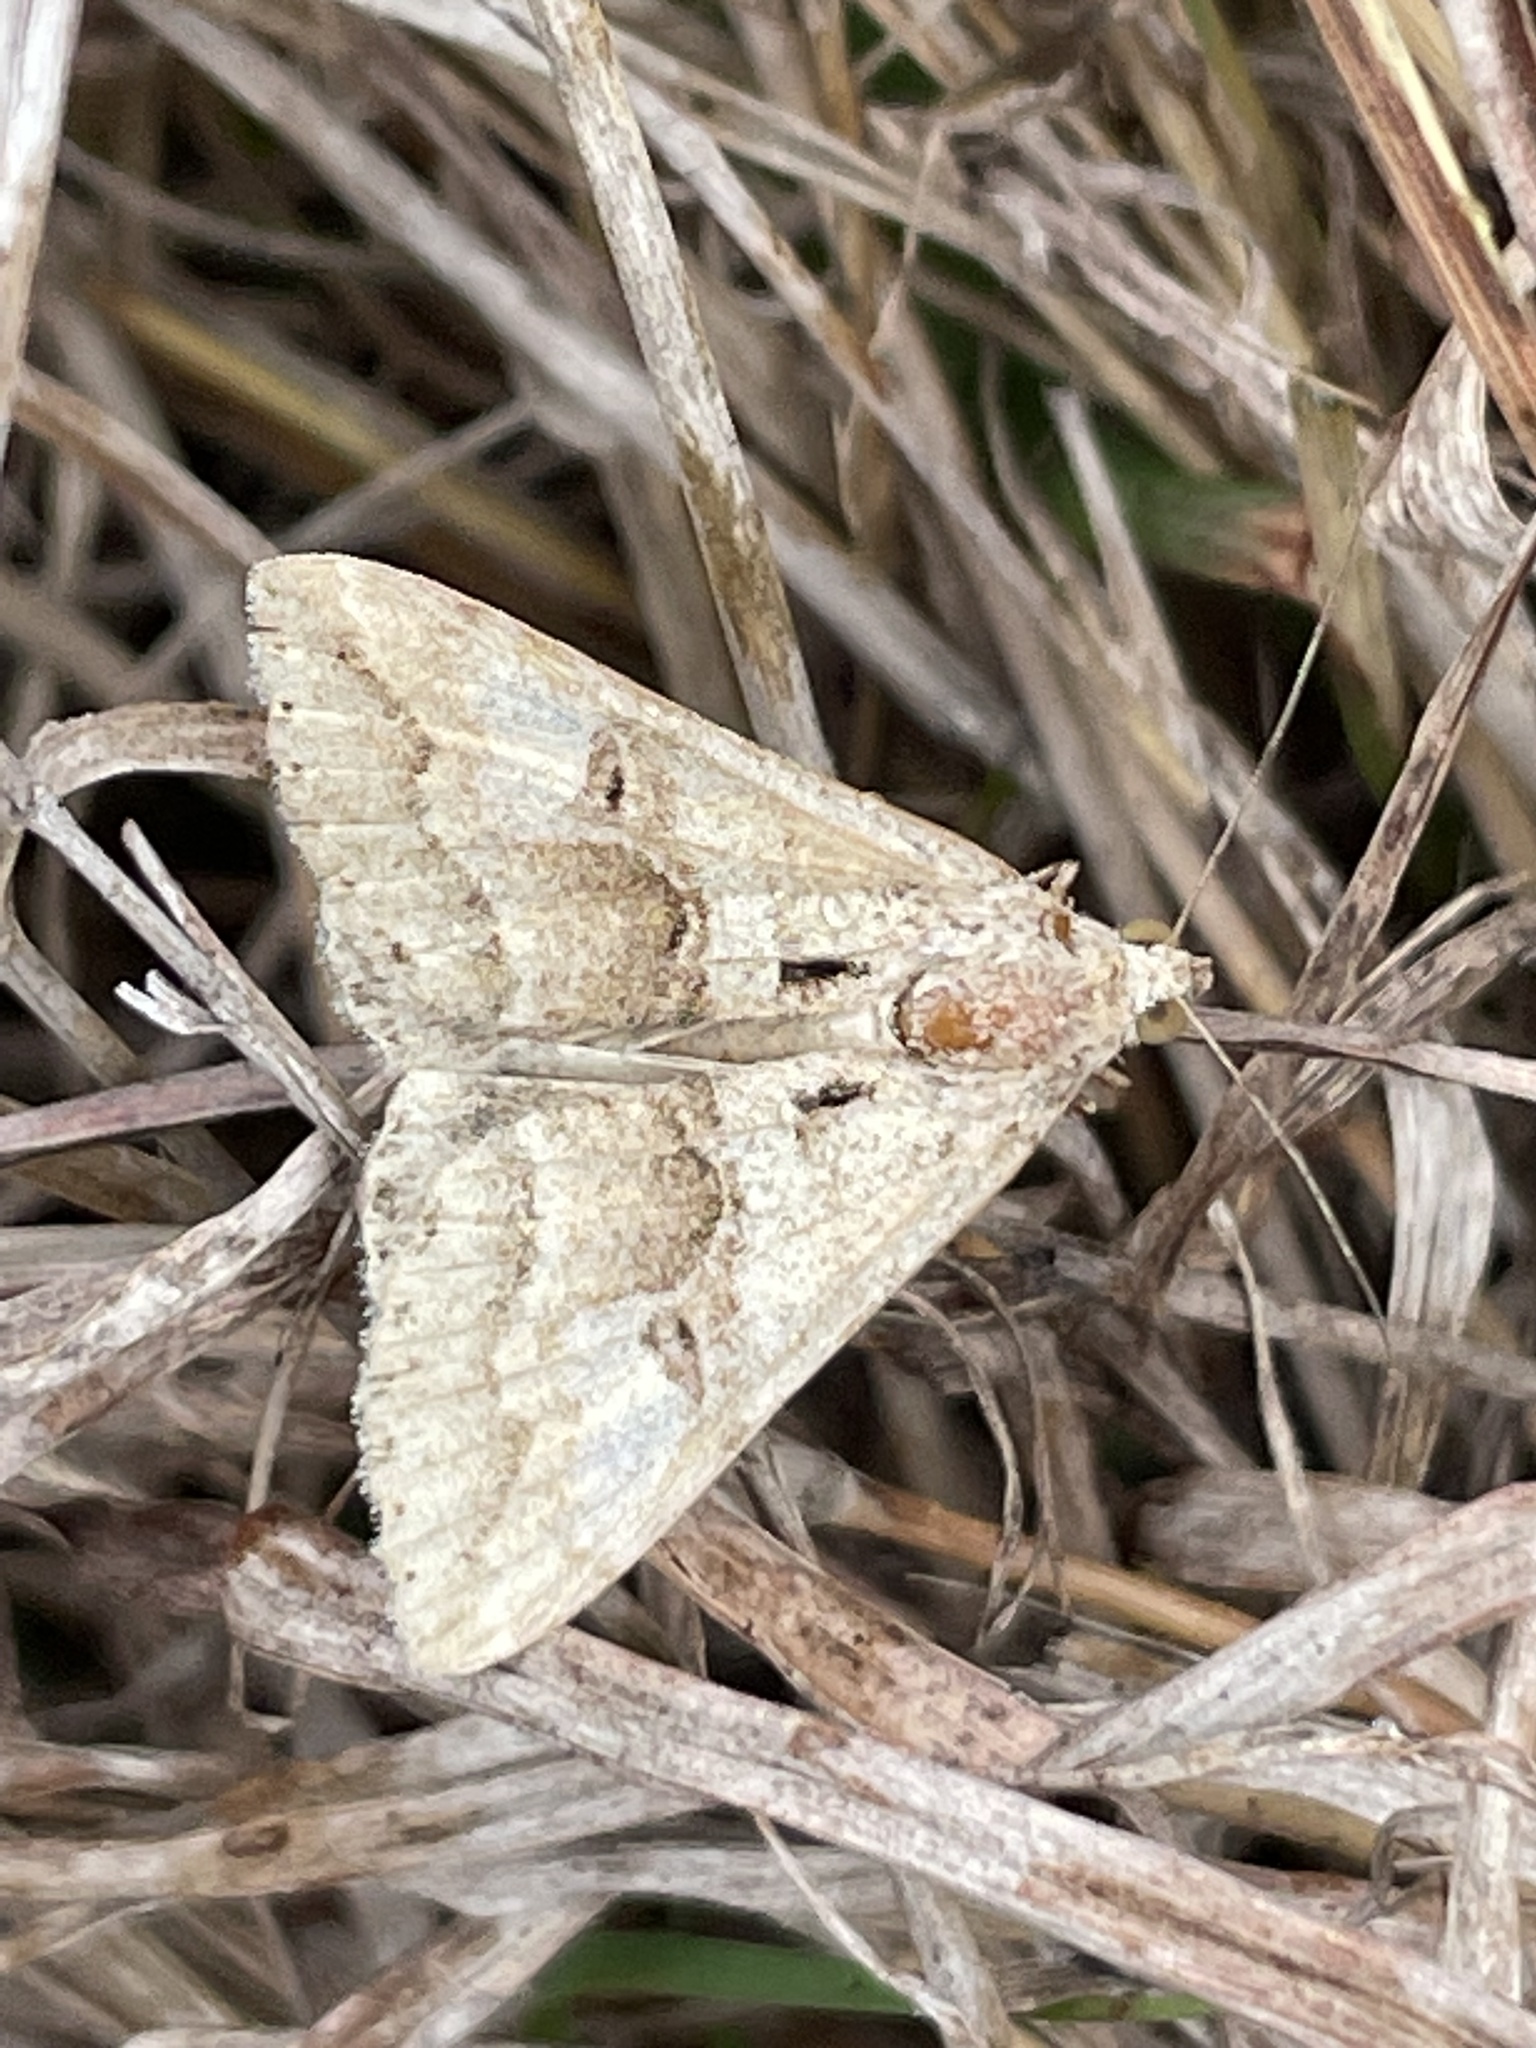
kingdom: Animalia
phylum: Arthropoda
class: Insecta
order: Lepidoptera
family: Erebidae
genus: Melipotis
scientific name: Melipotis cellaris
